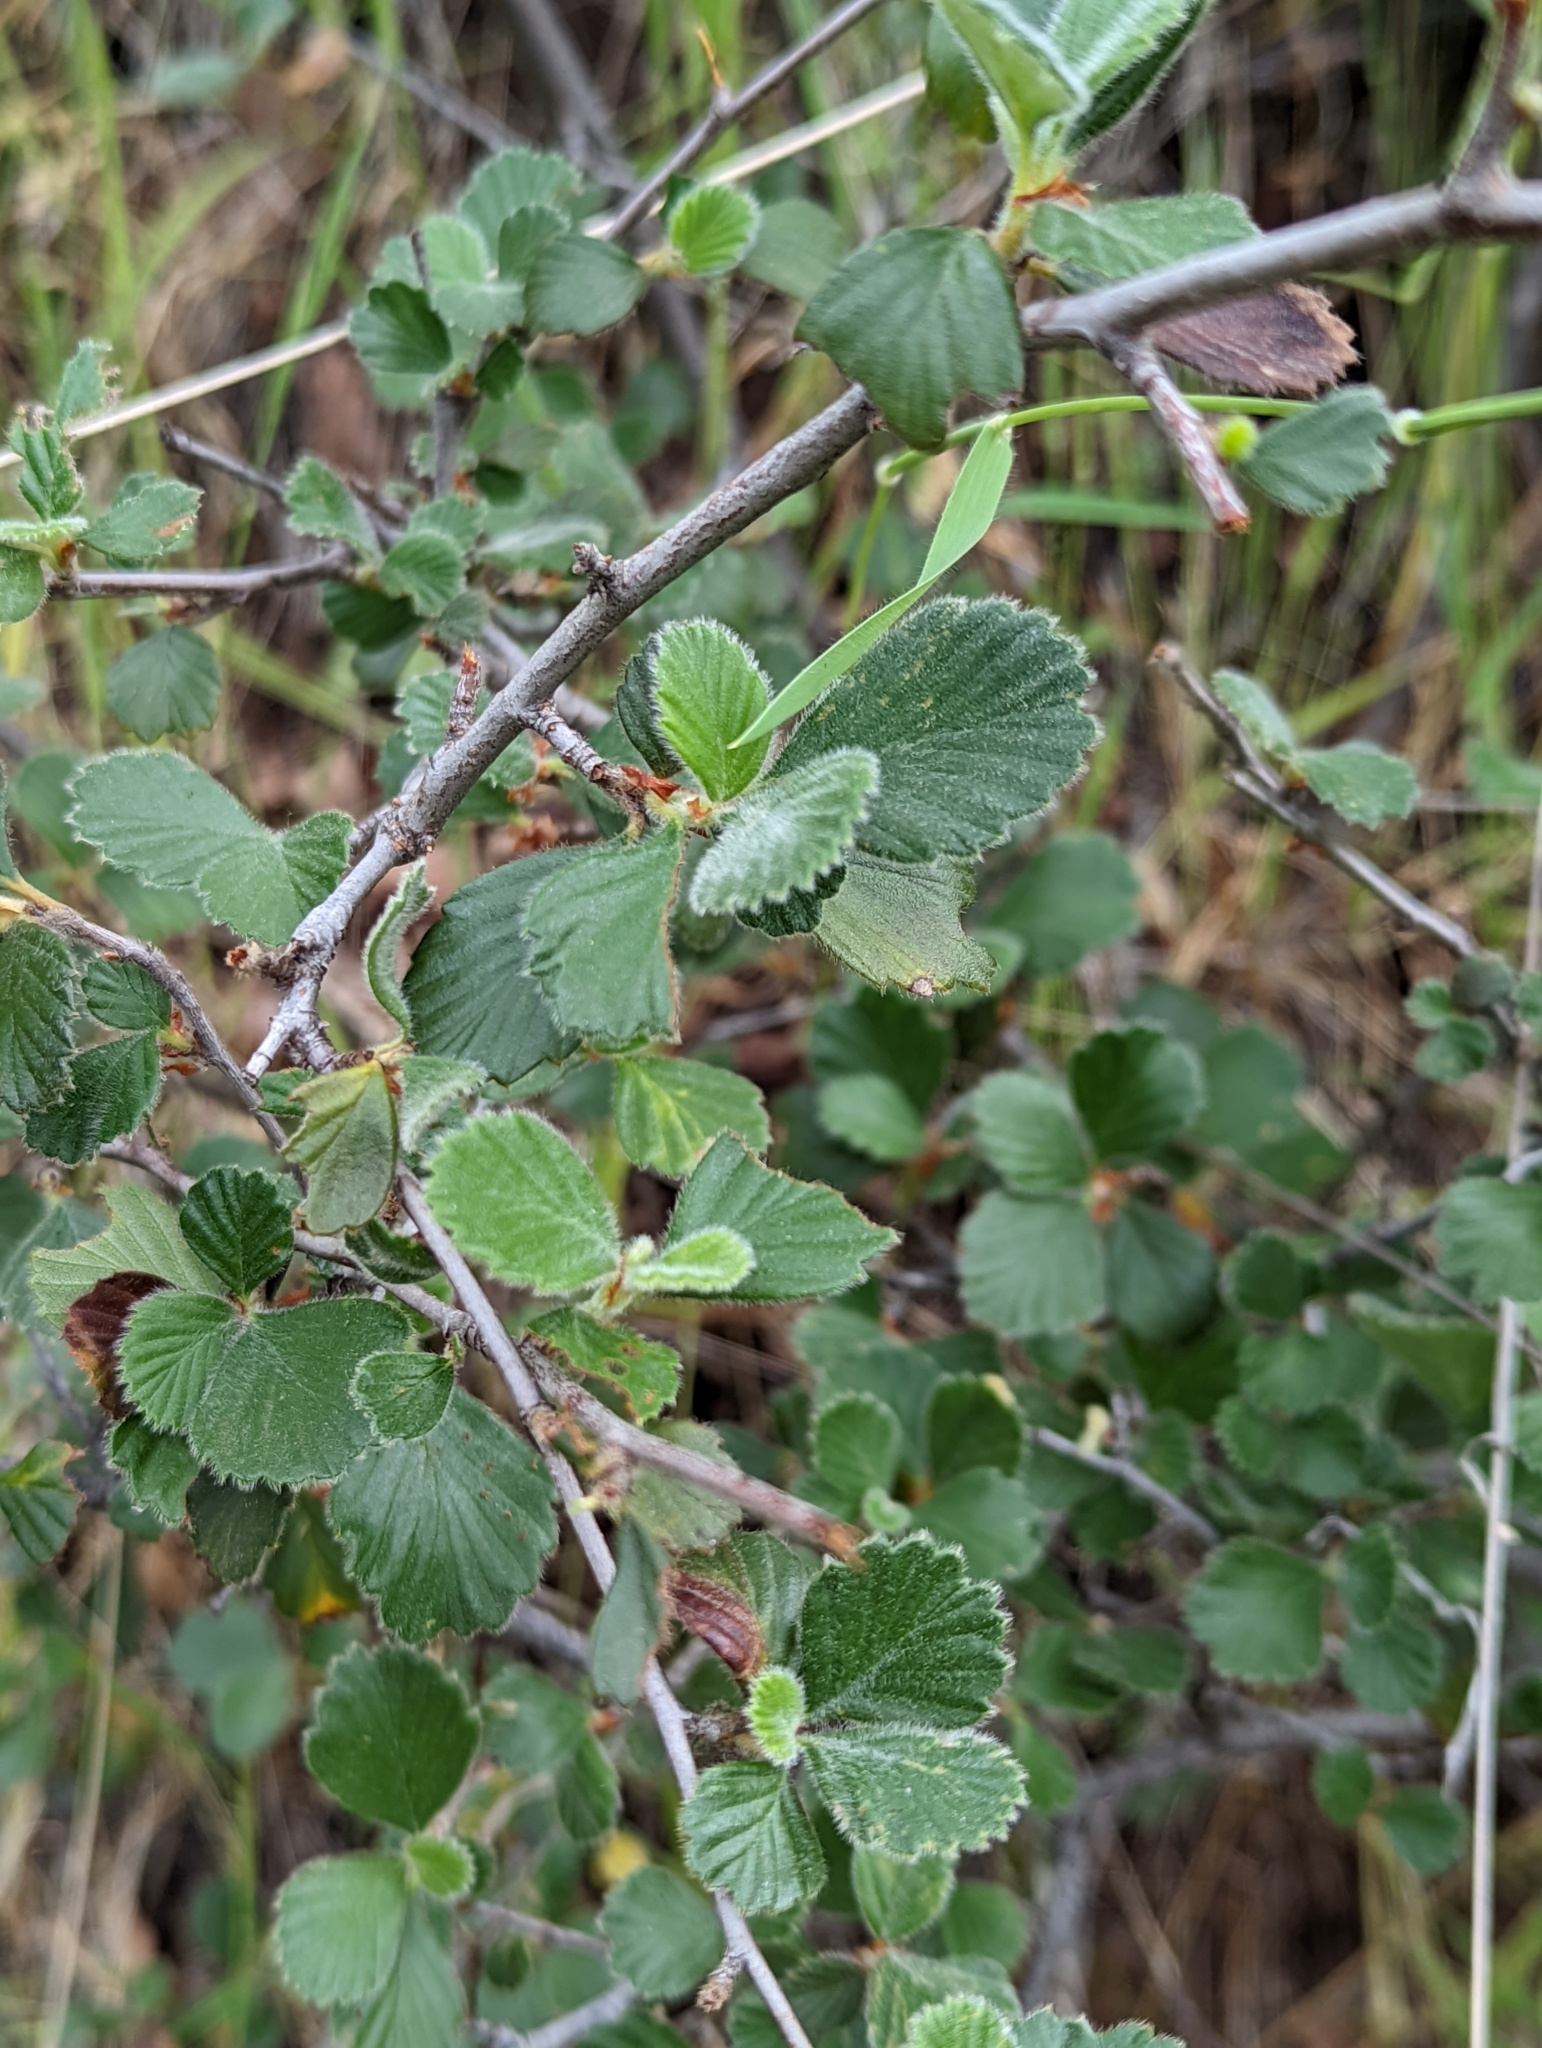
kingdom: Plantae
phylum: Tracheophyta
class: Magnoliopsida
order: Rosales
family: Rosaceae
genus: Cercocarpus
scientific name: Cercocarpus betuloides
